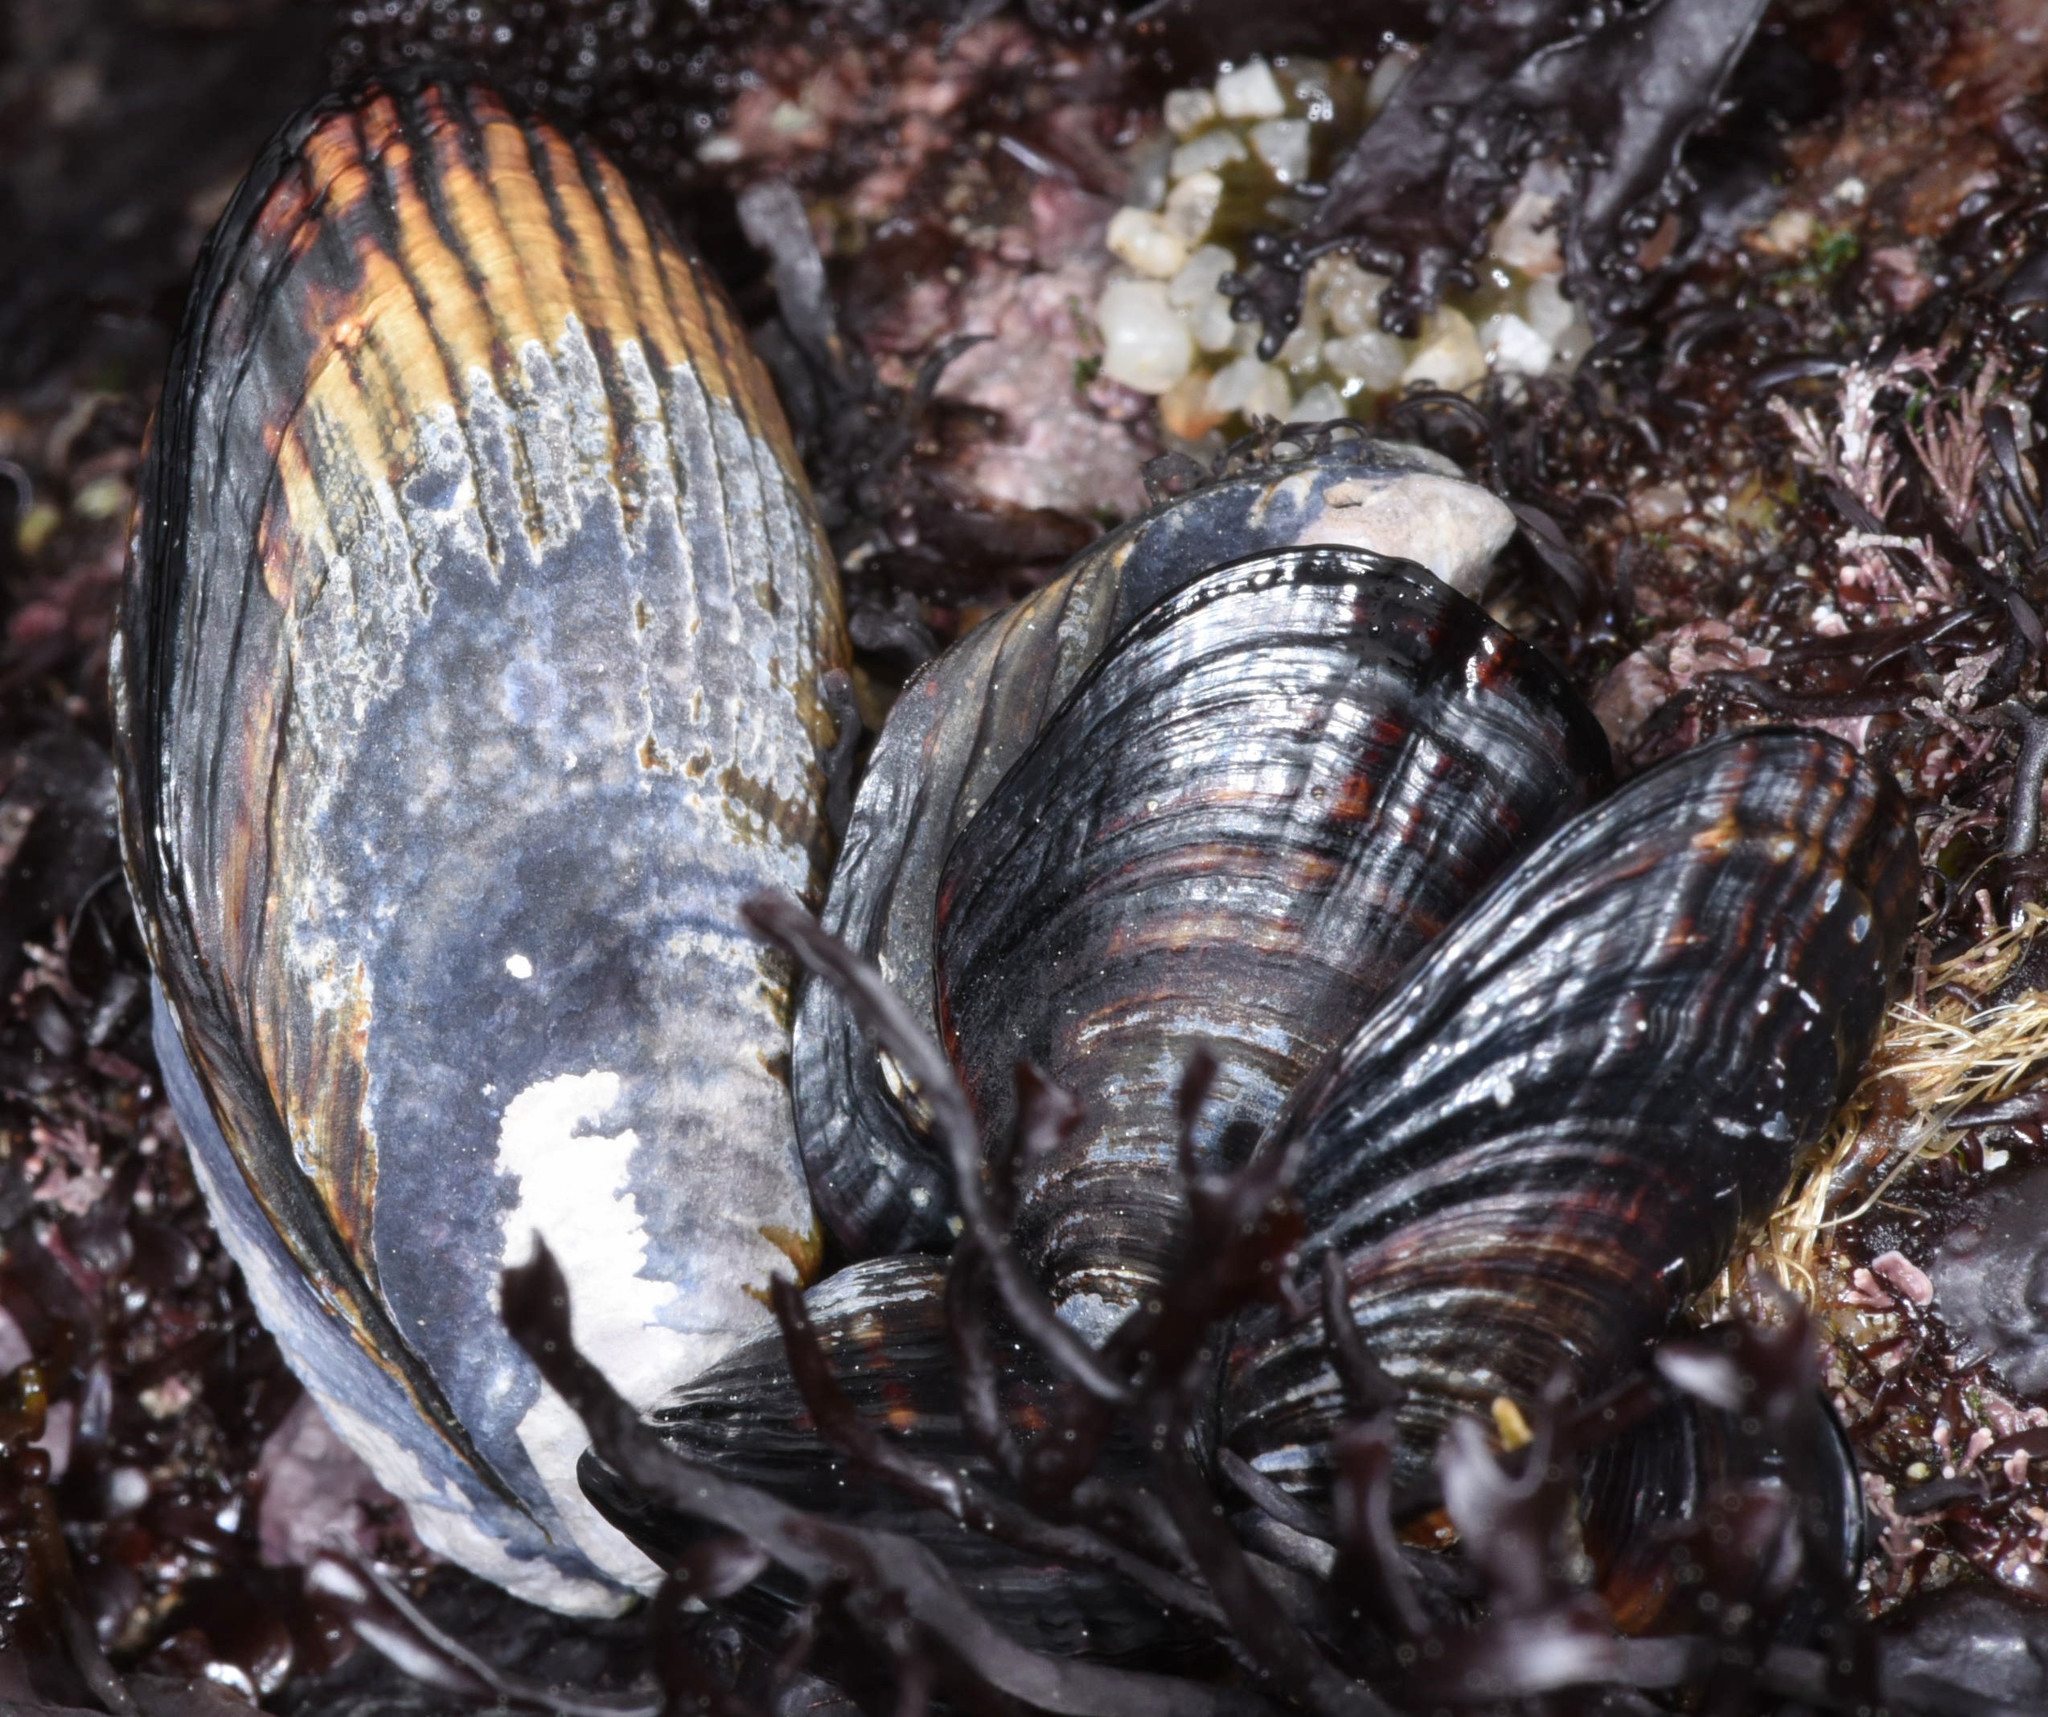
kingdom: Animalia
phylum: Mollusca
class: Bivalvia
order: Mytilida
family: Mytilidae
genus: Mytilus
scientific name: Mytilus californianus
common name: California mussel
